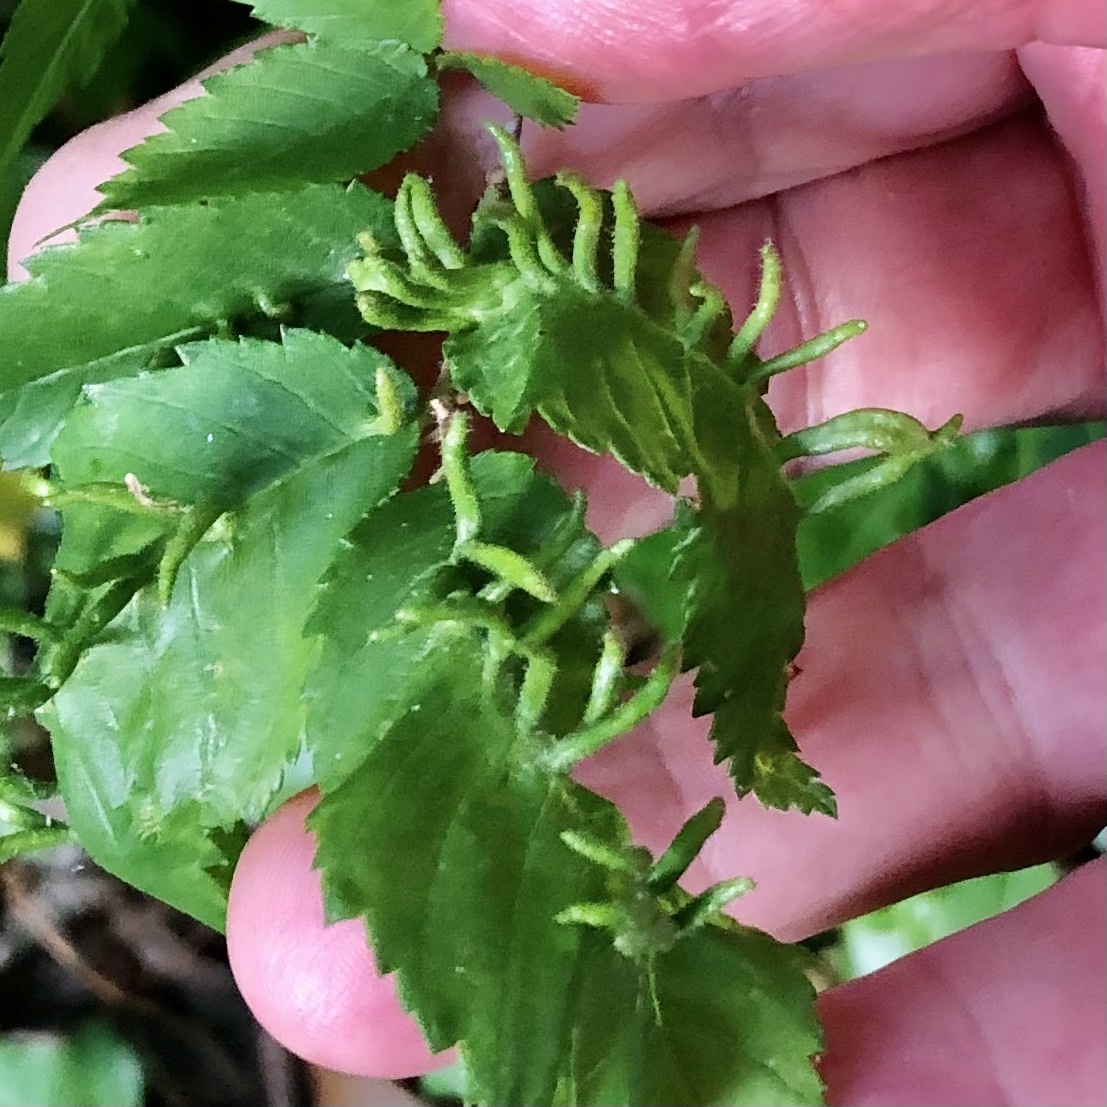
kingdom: Animalia
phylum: Arthropoda
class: Arachnida
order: Trombidiformes
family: Eriophyidae
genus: Aceria
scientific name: Aceria
